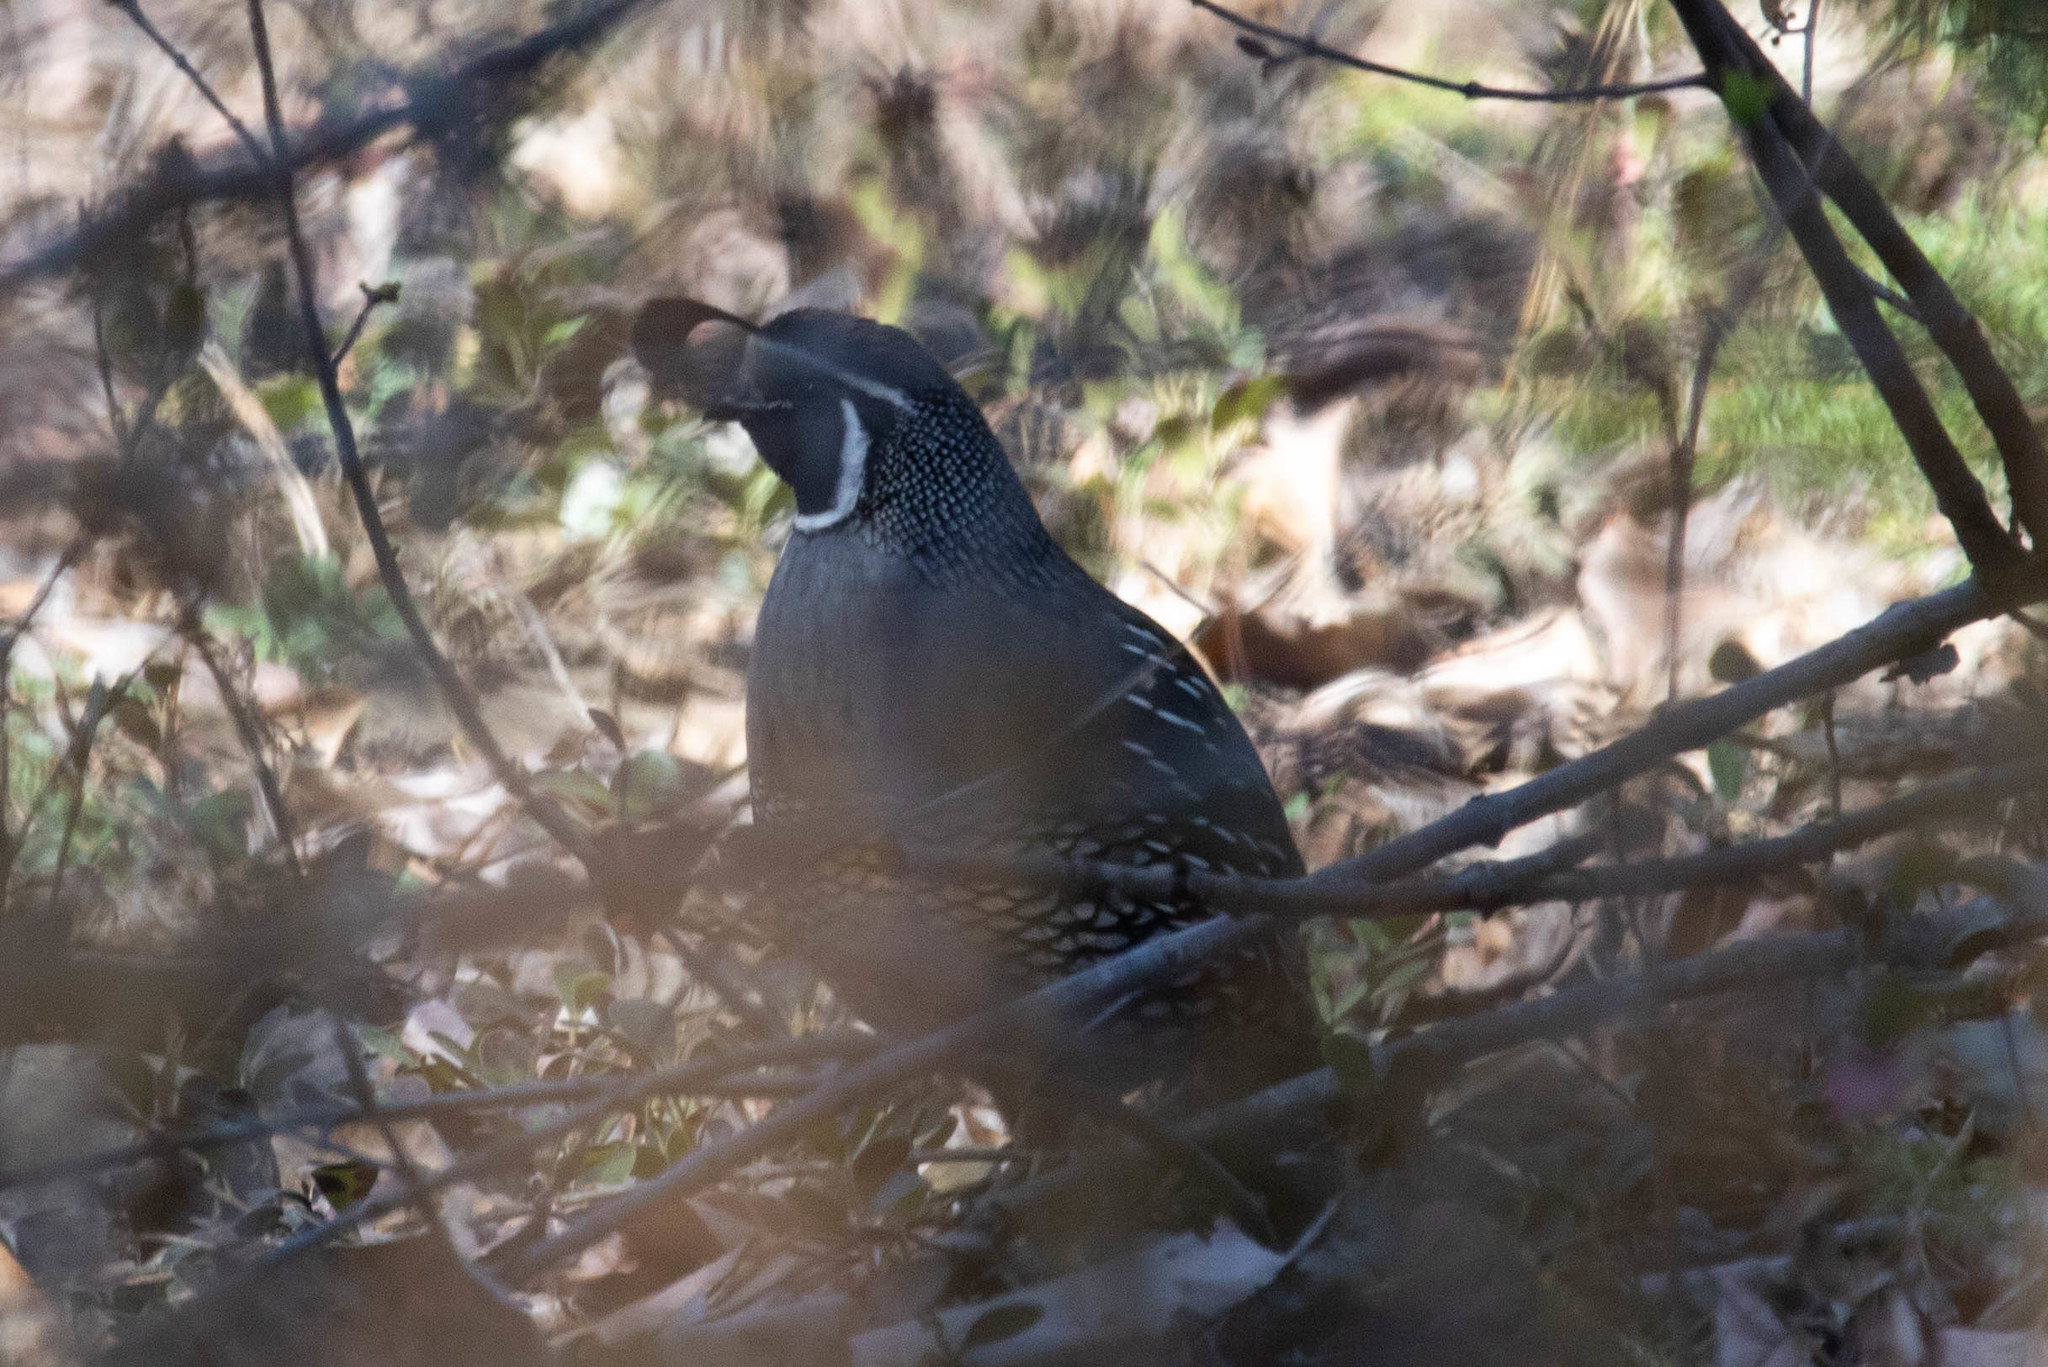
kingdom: Animalia
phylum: Chordata
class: Aves
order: Galliformes
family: Odontophoridae
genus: Callipepla
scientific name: Callipepla californica
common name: California quail
